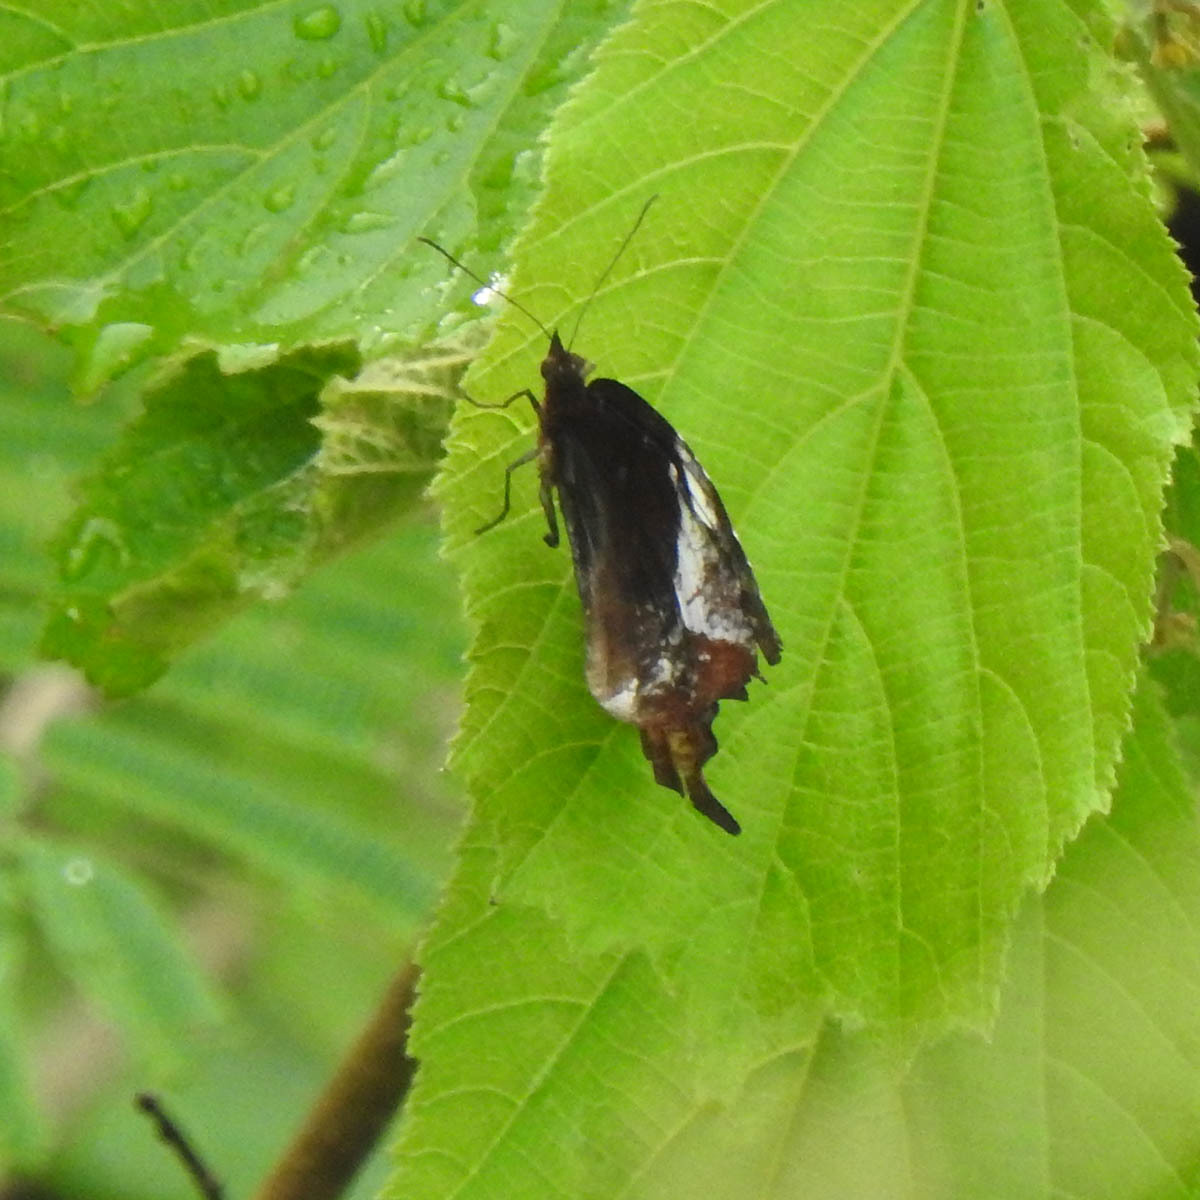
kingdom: Animalia
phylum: Arthropoda
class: Insecta
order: Lepidoptera
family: Nymphalidae
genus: Elymnias
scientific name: Elymnias caudata
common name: Tailed palmfly
